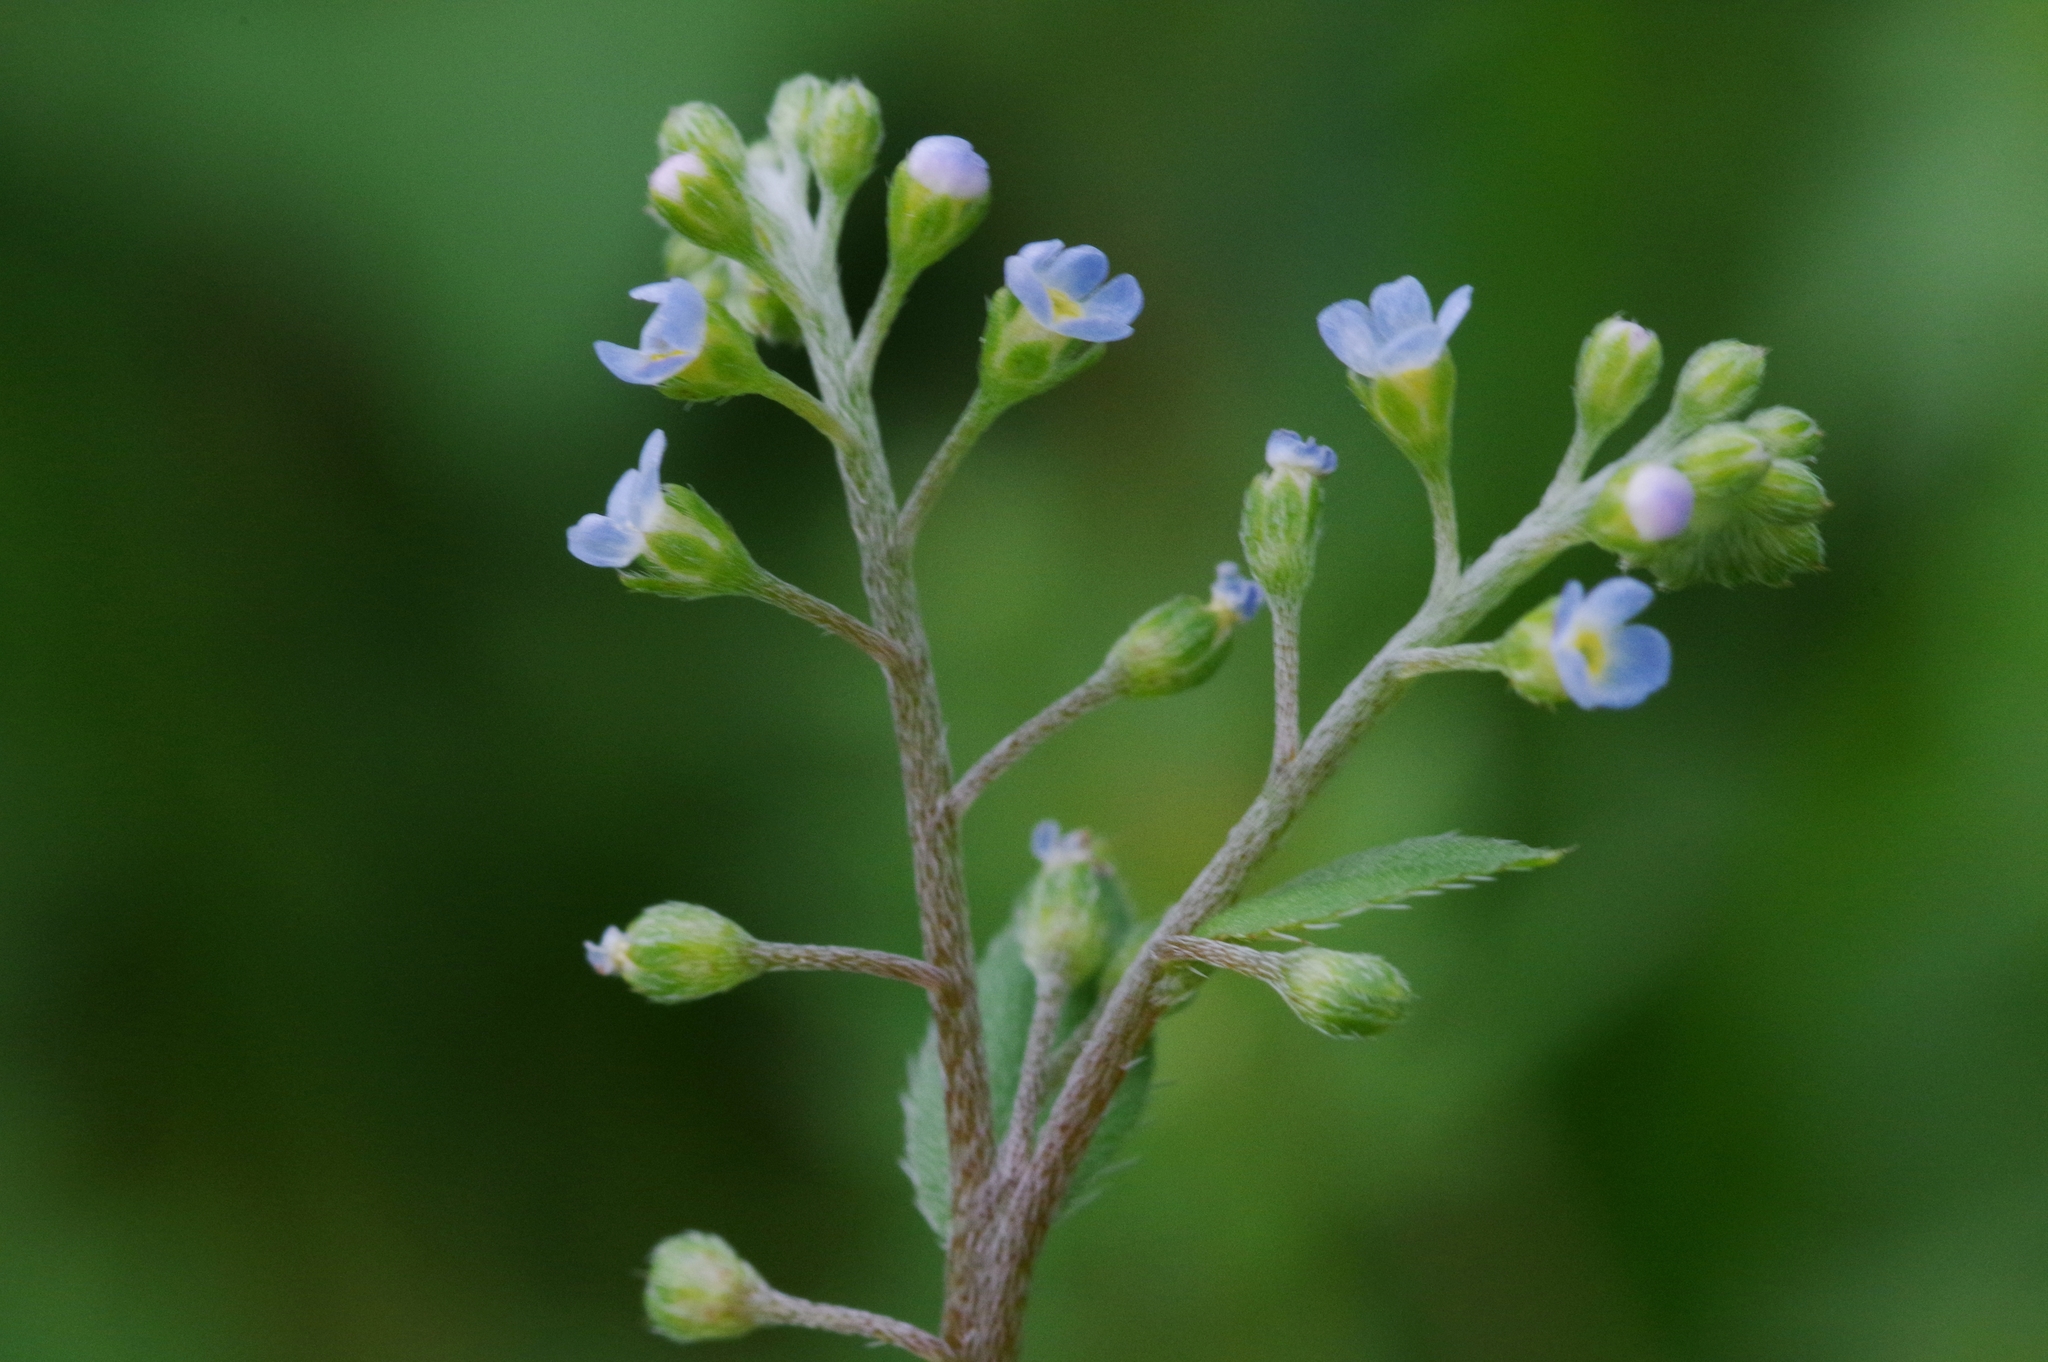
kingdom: Plantae
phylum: Tracheophyta
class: Magnoliopsida
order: Boraginales
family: Boraginaceae
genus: Trigonotis
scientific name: Trigonotis peduncularis
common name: Cucumber herb
